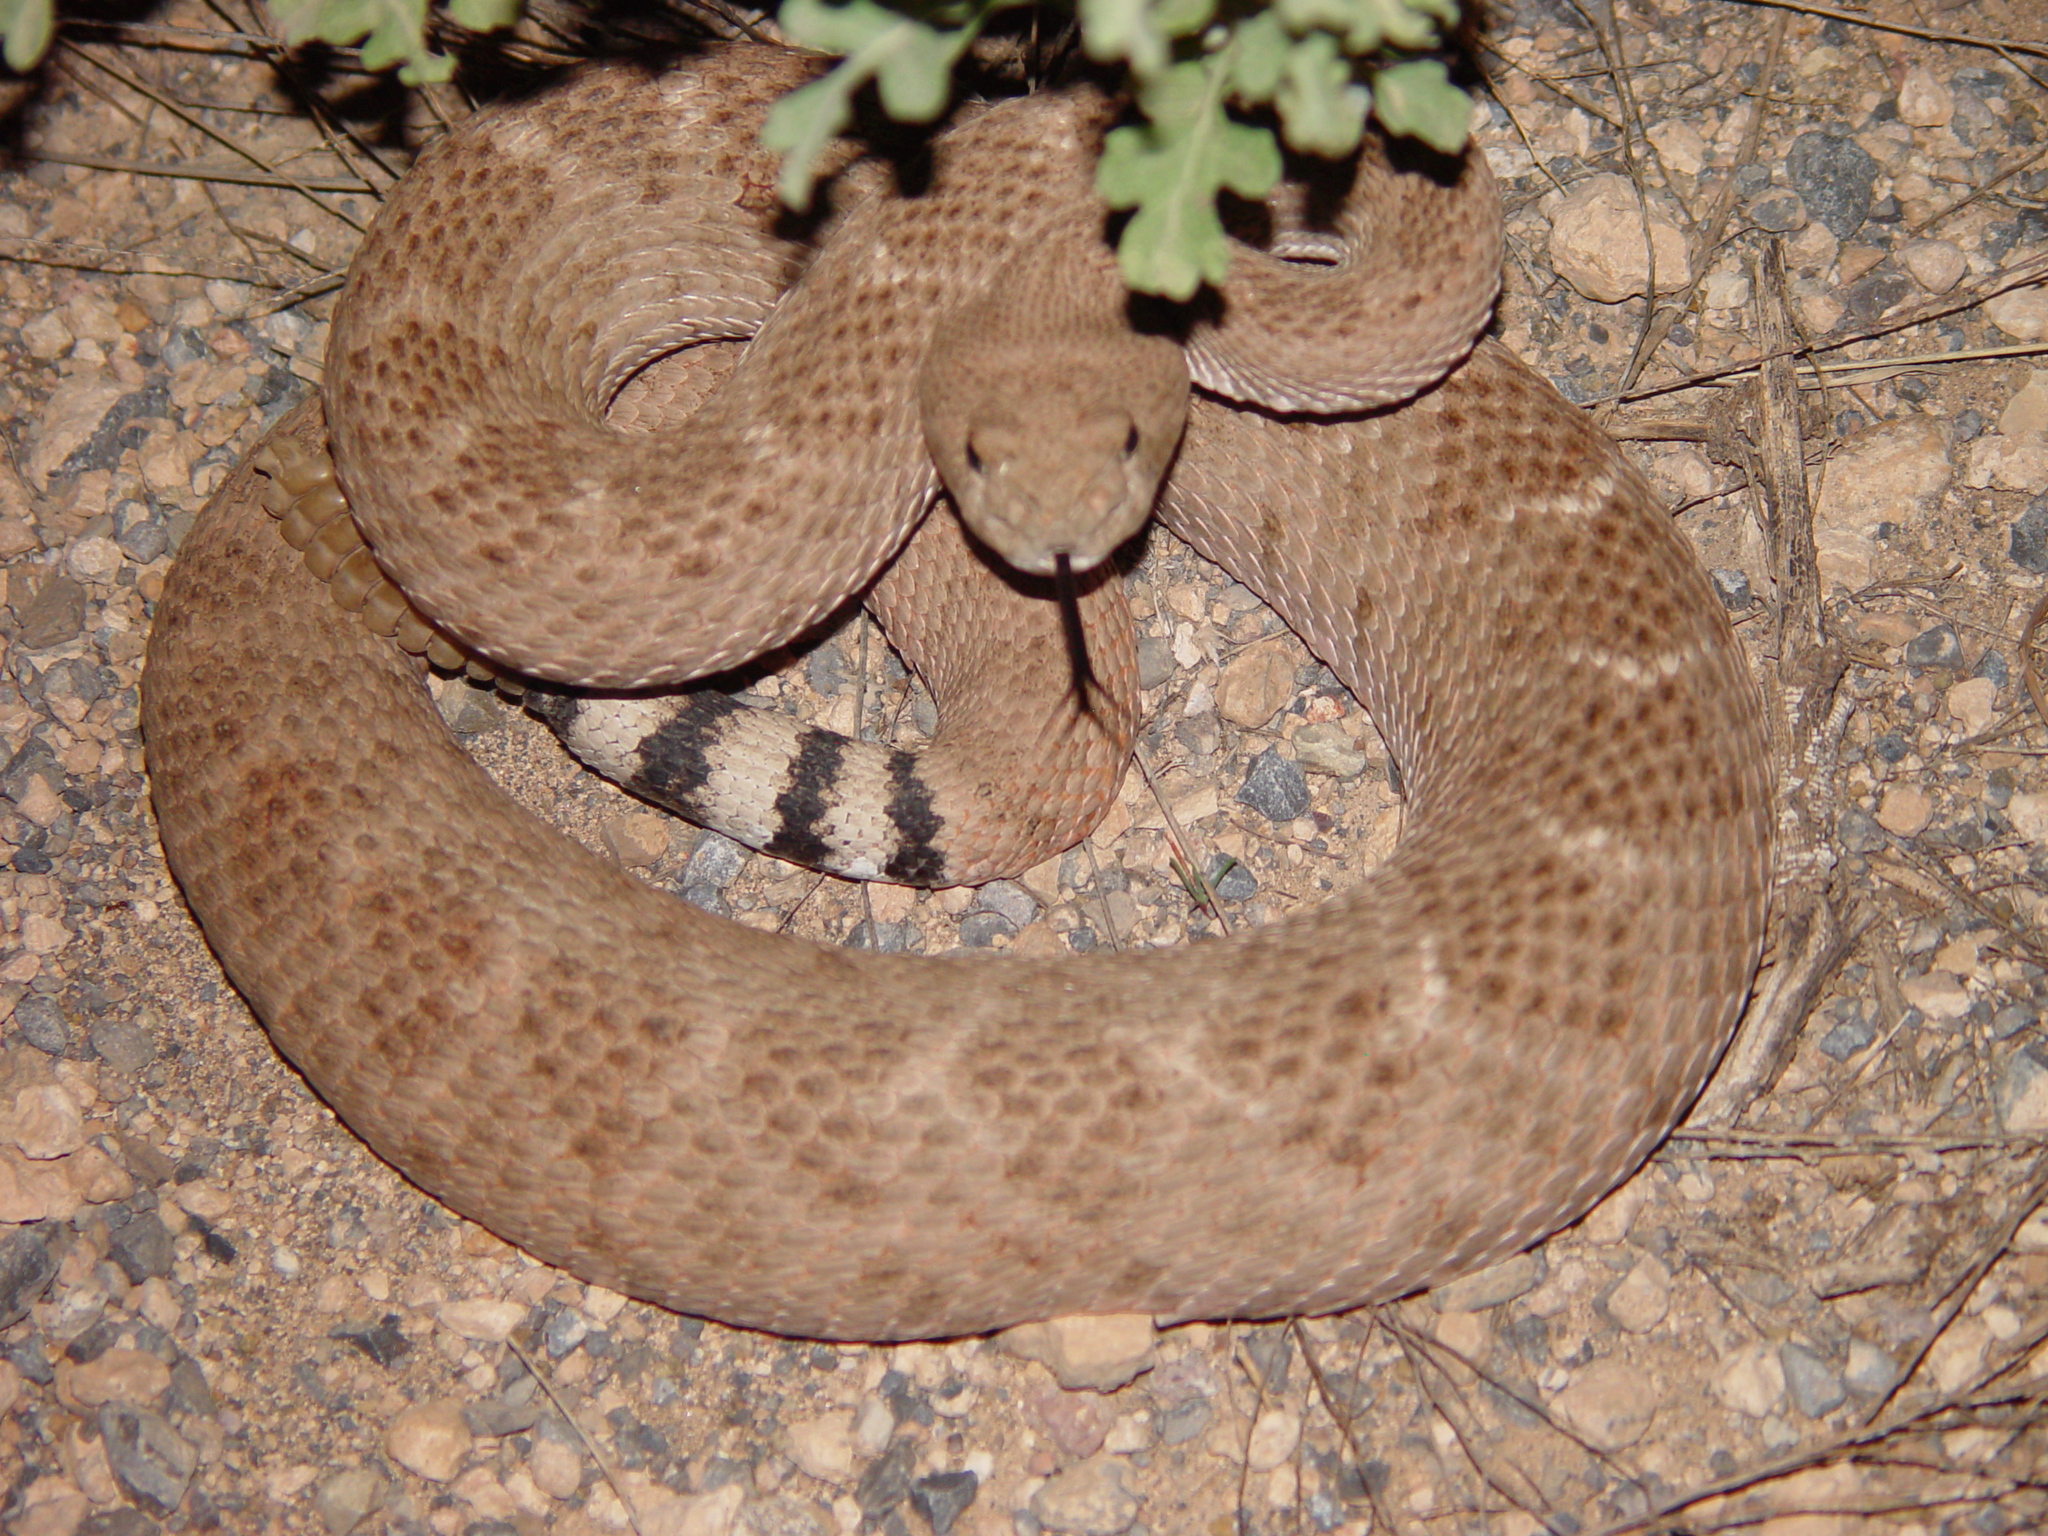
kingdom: Animalia
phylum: Chordata
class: Squamata
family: Viperidae
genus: Crotalus
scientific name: Crotalus atrox
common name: Western diamond-backed rattlesnake
